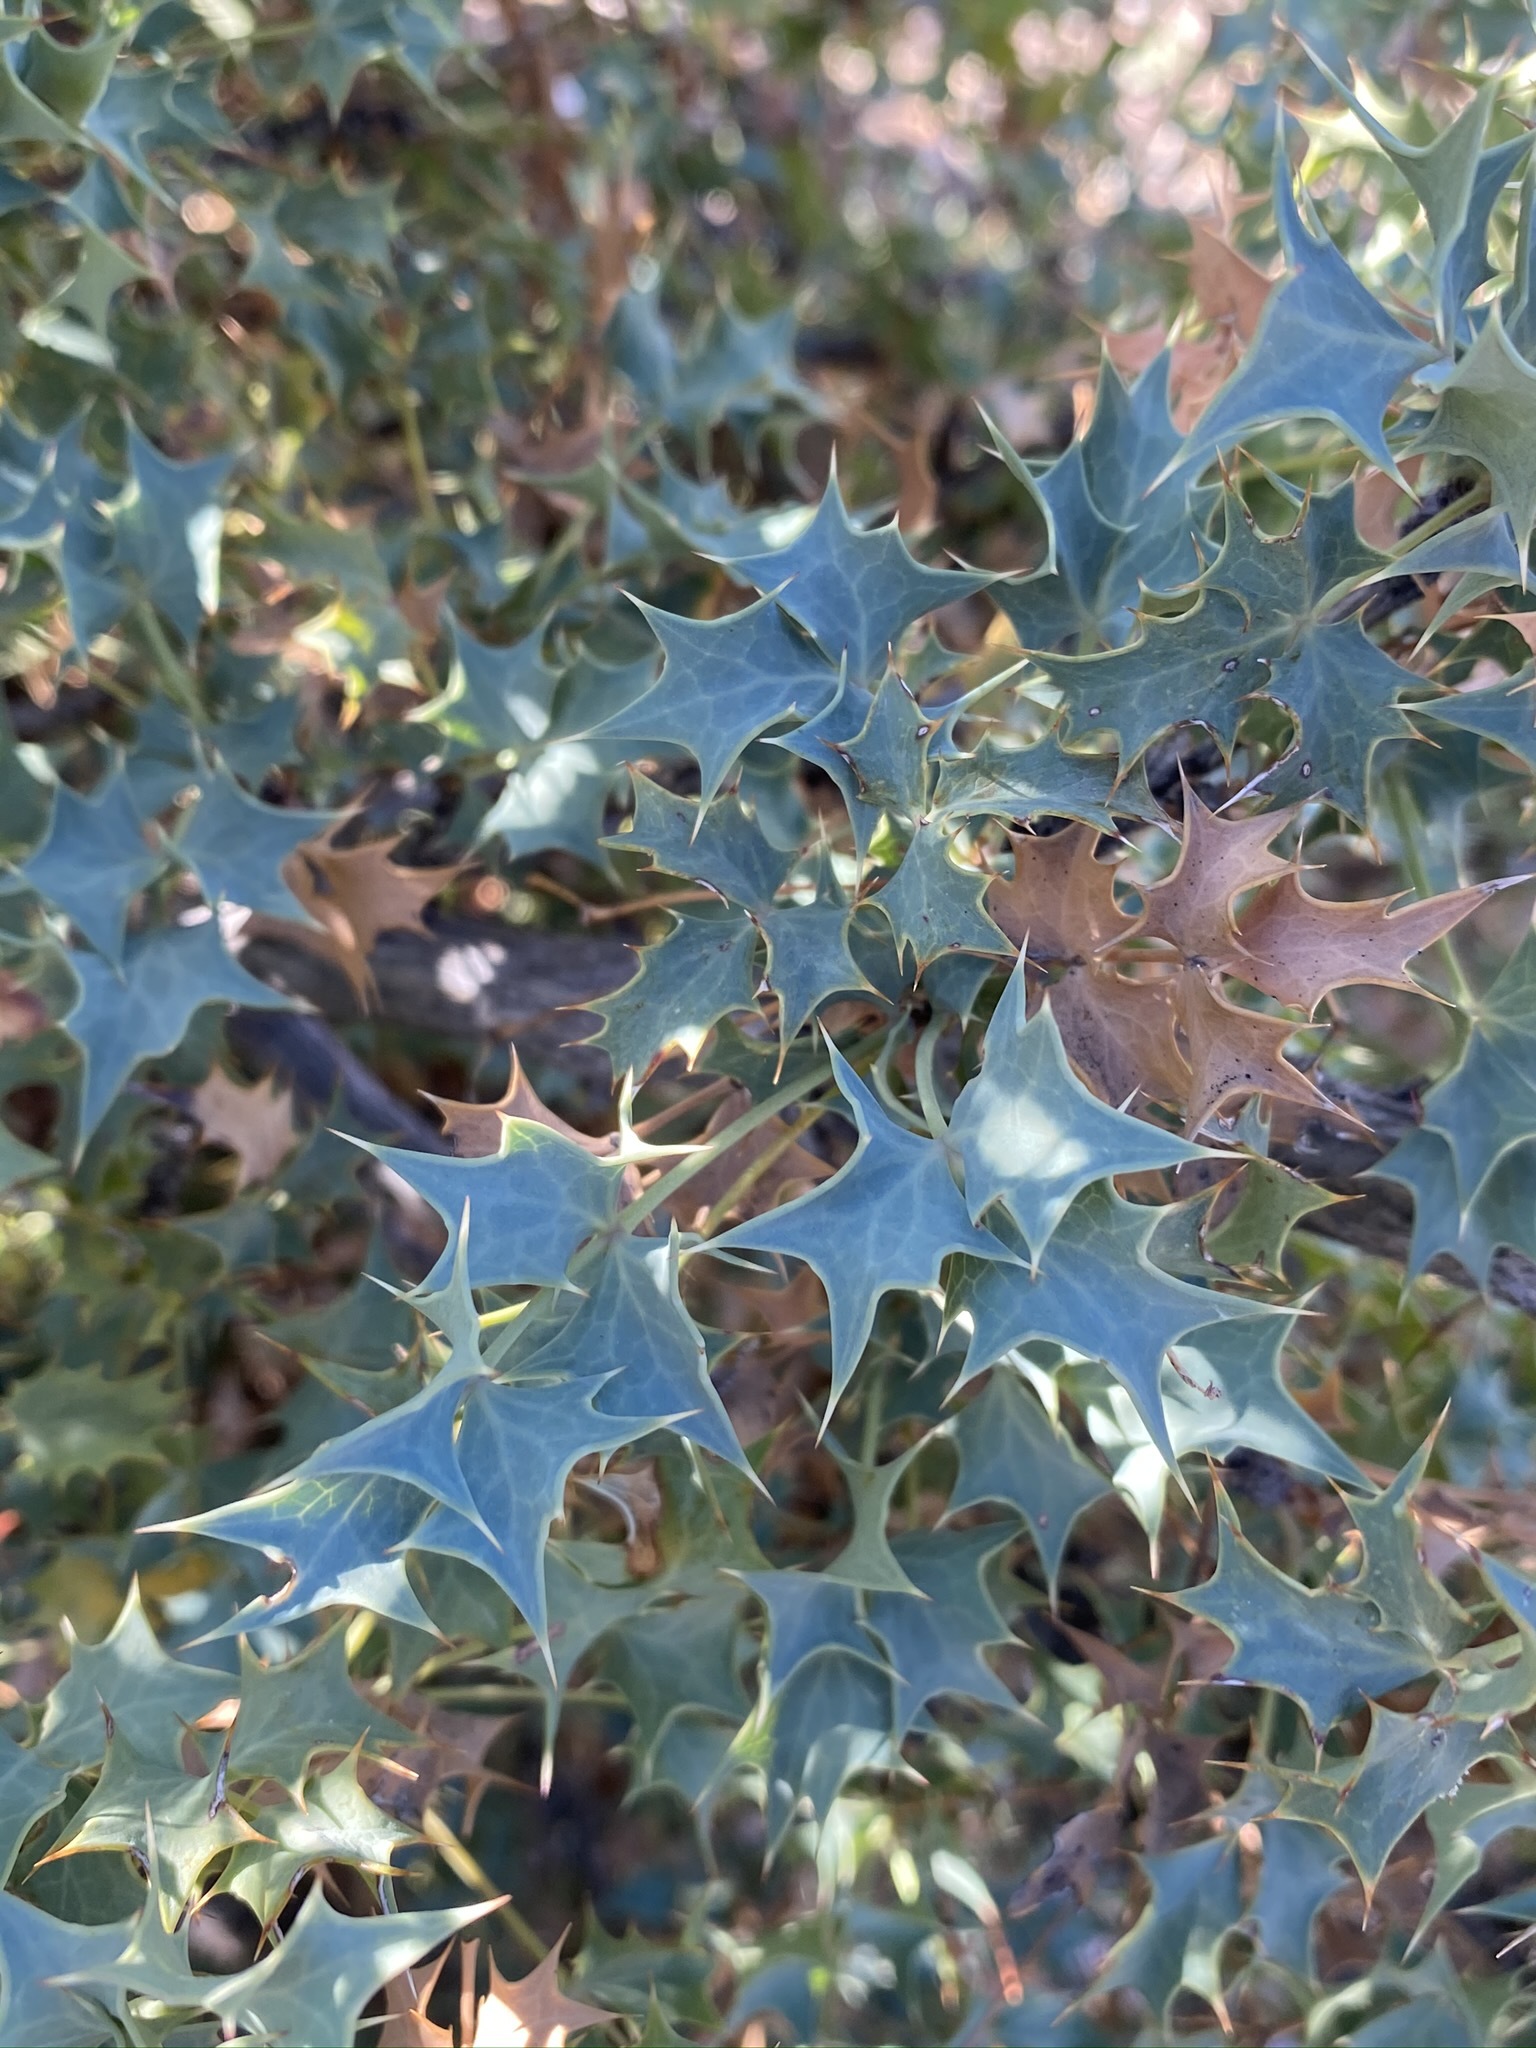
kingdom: Plantae
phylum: Tracheophyta
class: Magnoliopsida
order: Ranunculales
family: Berberidaceae
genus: Alloberberis
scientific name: Alloberberis fremontii
